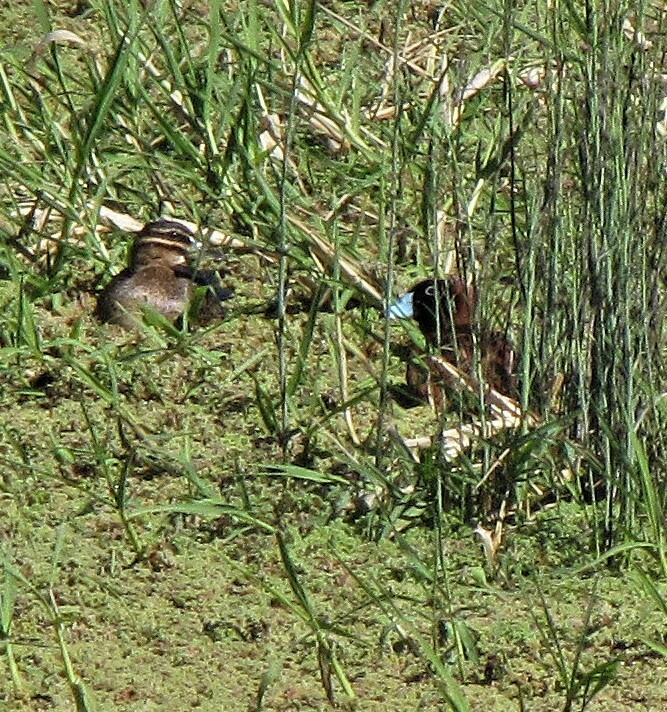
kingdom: Animalia
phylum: Chordata
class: Aves
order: Anseriformes
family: Anatidae
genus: Nomonyx
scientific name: Nomonyx dominicus
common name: Masked duck
